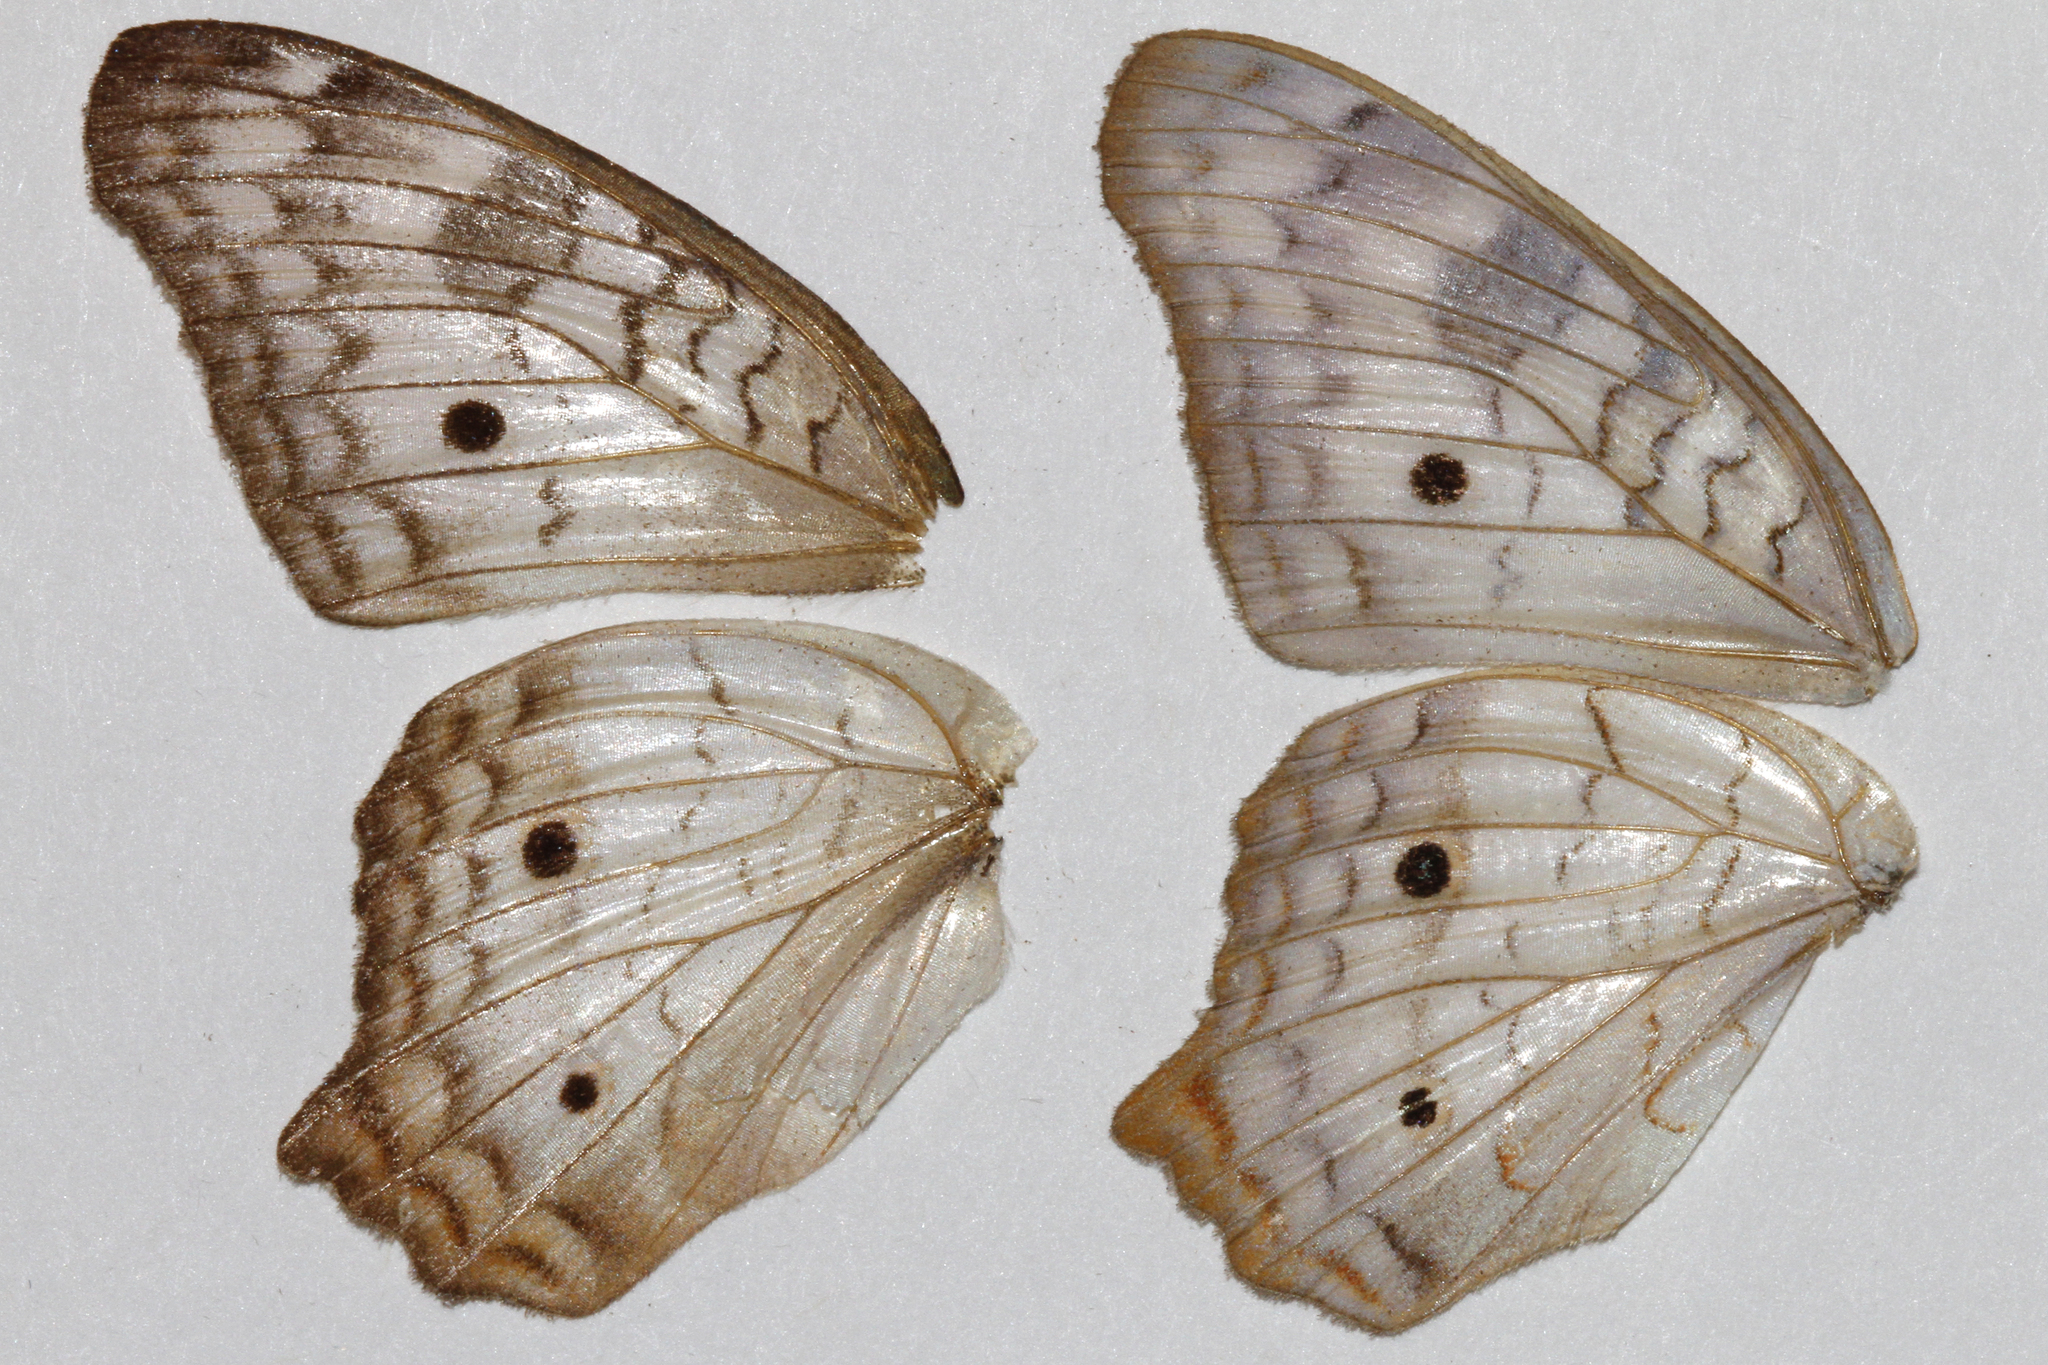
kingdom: Animalia
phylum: Arthropoda
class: Insecta
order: Lepidoptera
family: Nymphalidae
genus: Anartia
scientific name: Anartia jatrophae
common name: White peacock
